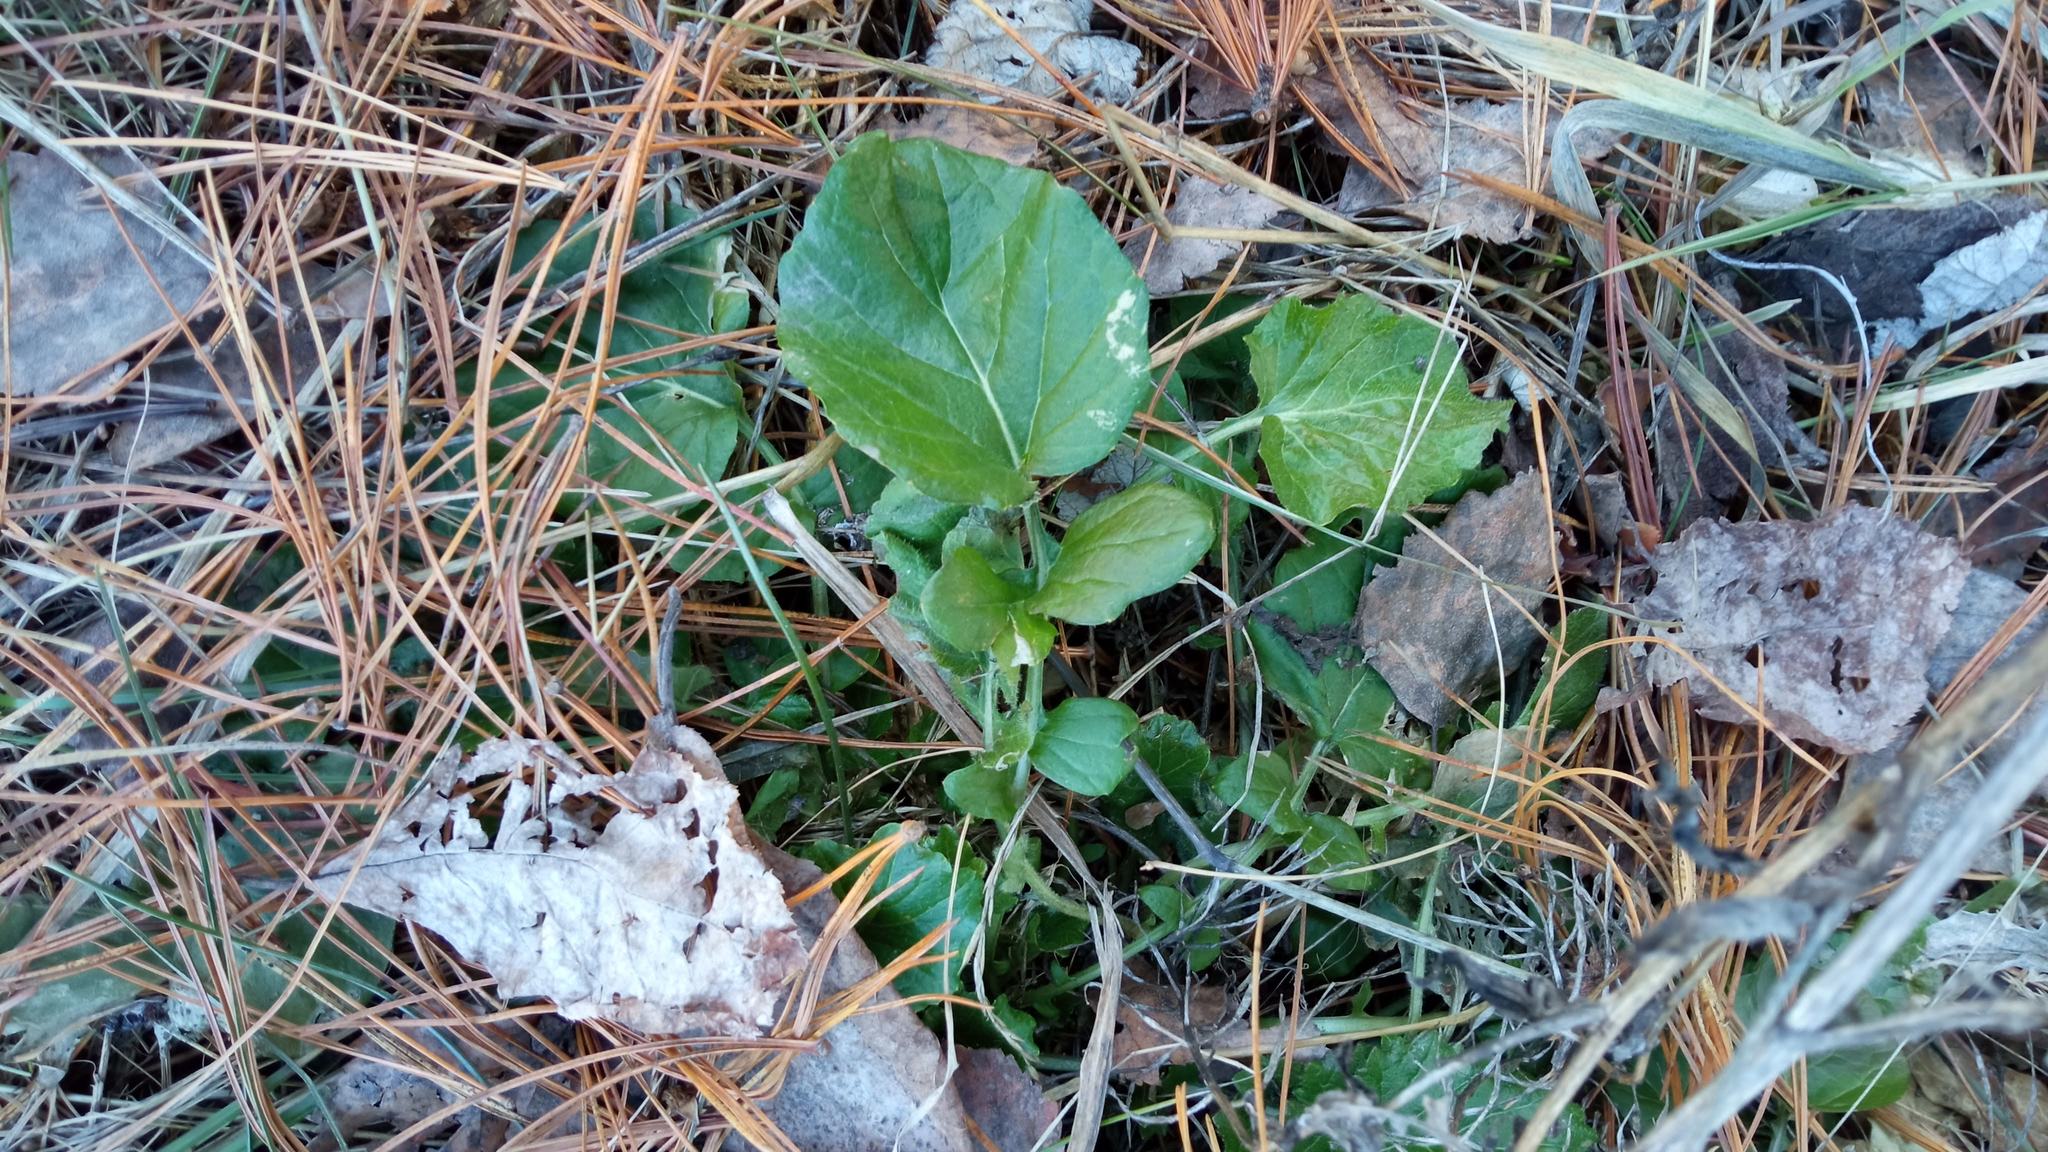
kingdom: Plantae
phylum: Tracheophyta
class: Magnoliopsida
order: Brassicales
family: Brassicaceae
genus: Barbarea
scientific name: Barbarea vulgaris
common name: Cressy-greens
